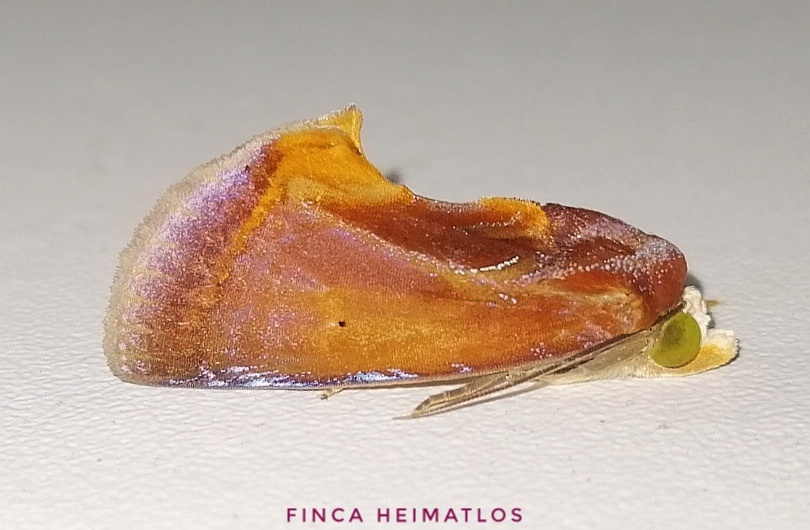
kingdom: Animalia
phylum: Arthropoda
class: Insecta
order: Lepidoptera
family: Erebidae
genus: Gonodonta
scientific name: Gonodonta fulvangula
